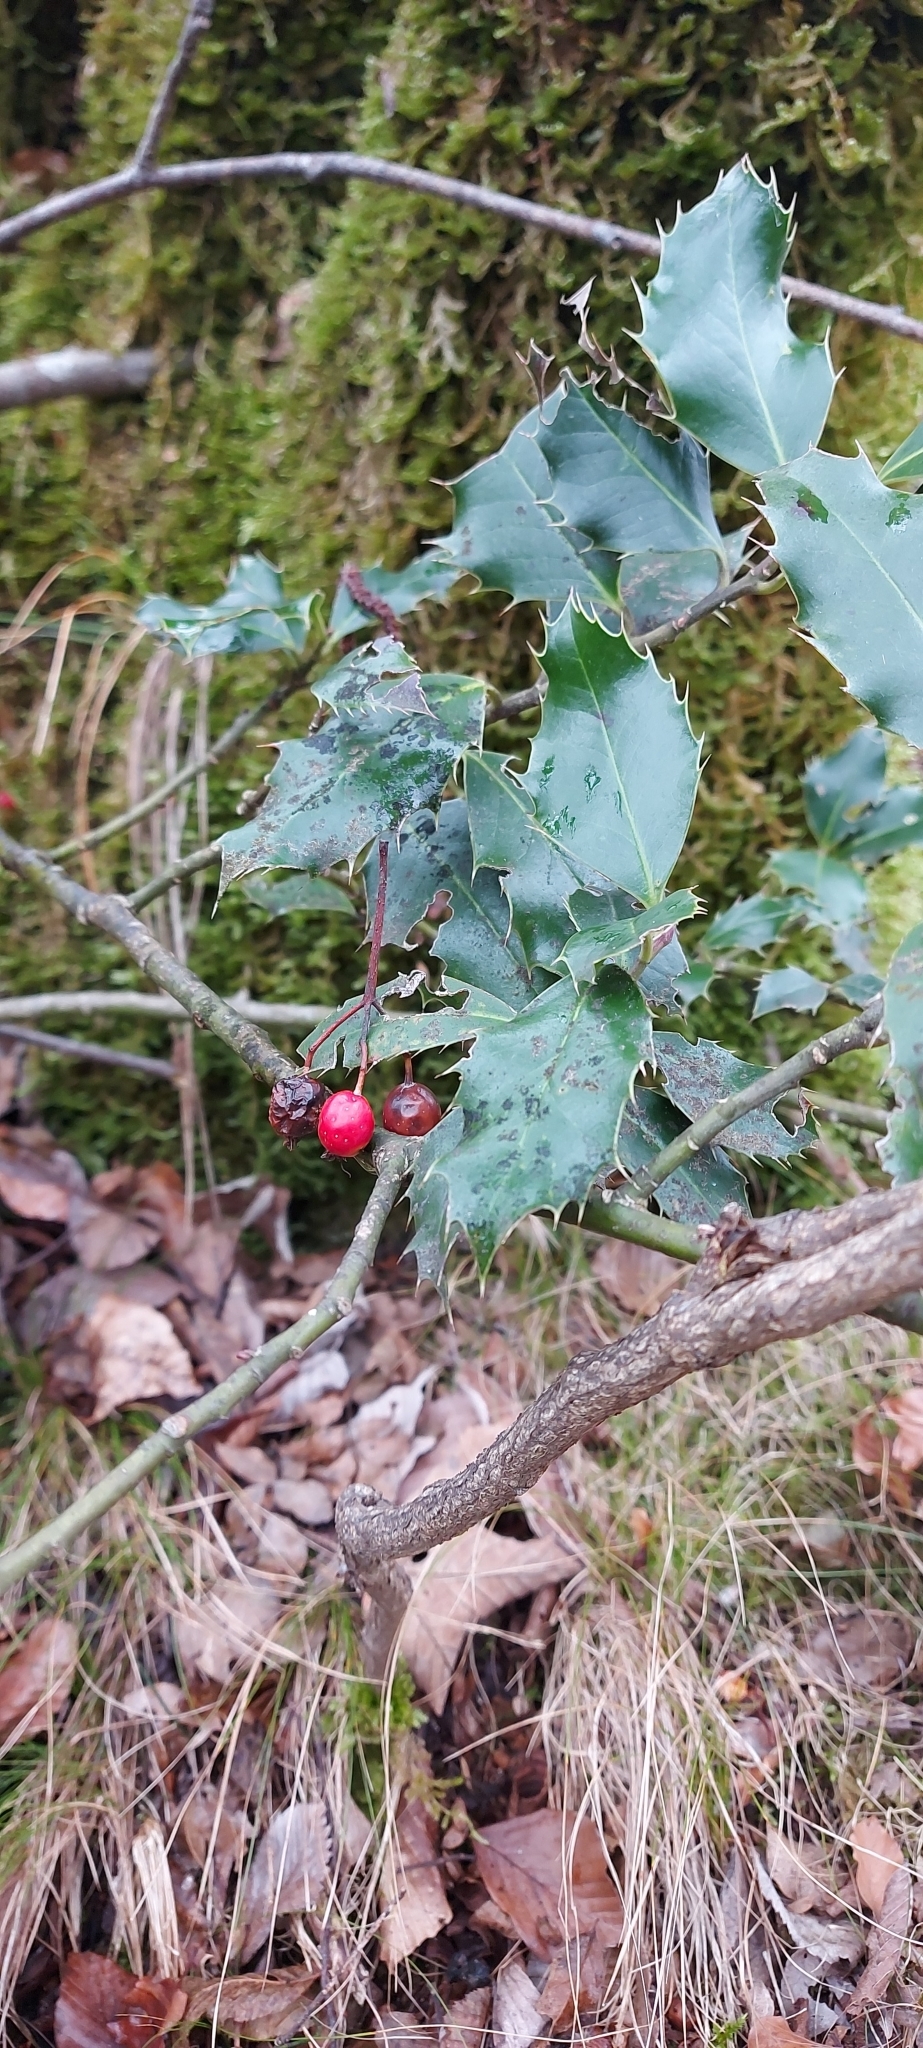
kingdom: Plantae
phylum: Tracheophyta
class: Magnoliopsida
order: Aquifoliales
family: Aquifoliaceae
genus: Ilex
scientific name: Ilex aquifolium
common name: English holly
